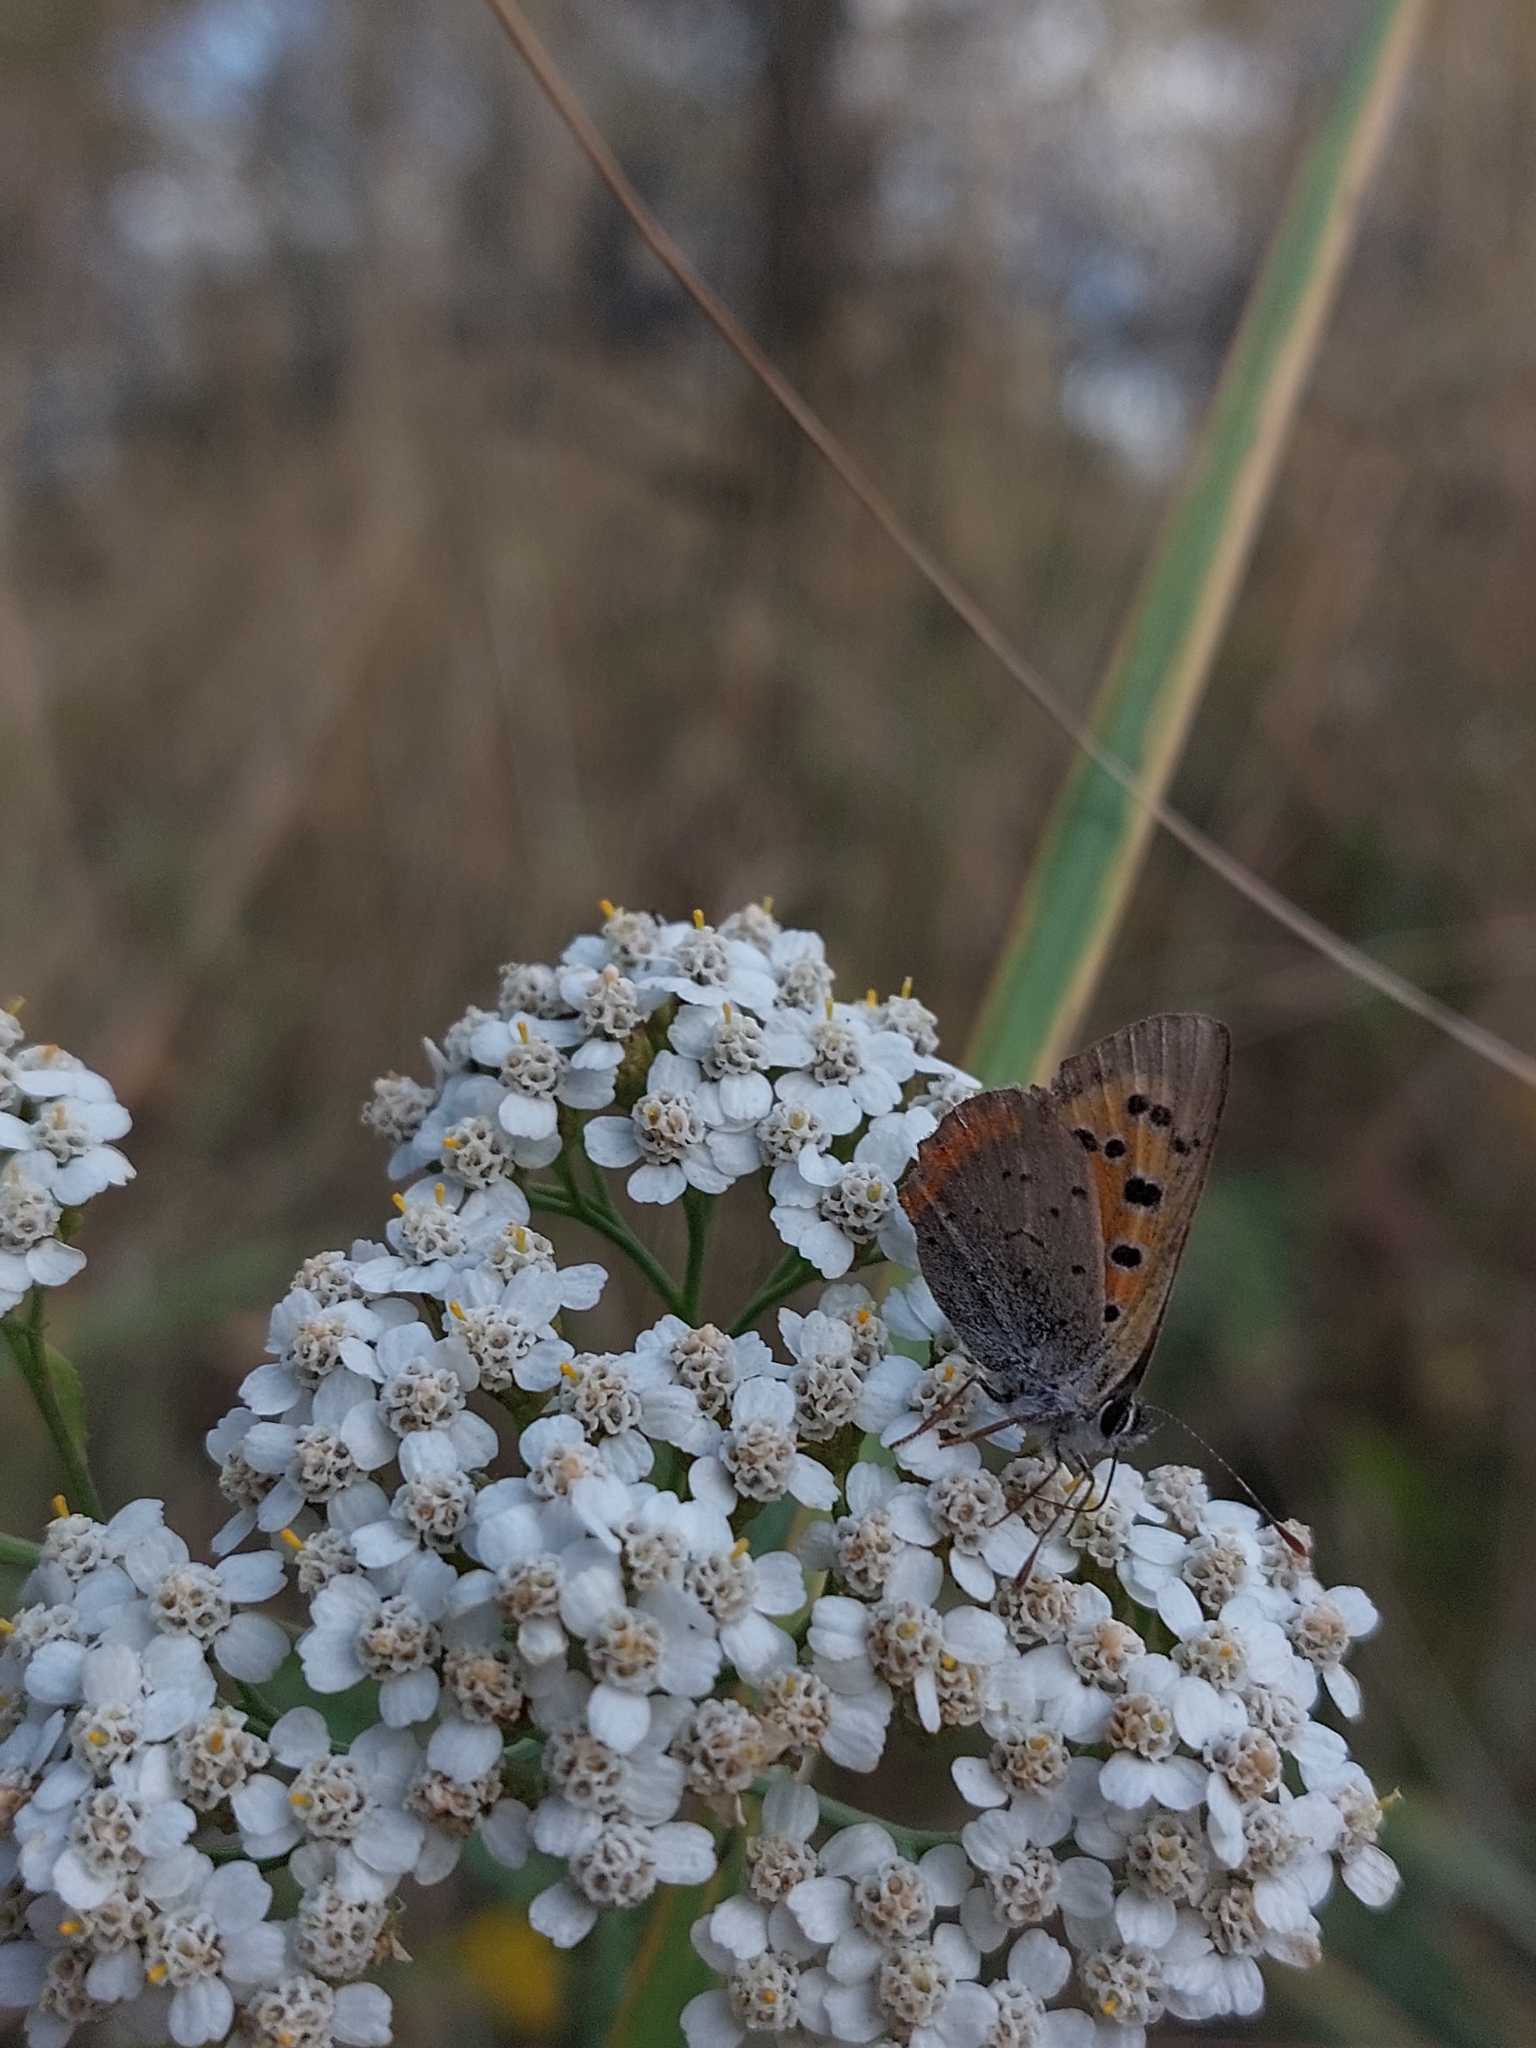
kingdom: Animalia
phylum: Arthropoda
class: Insecta
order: Lepidoptera
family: Lycaenidae
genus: Lycaena
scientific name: Lycaena phlaeas
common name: Small copper
